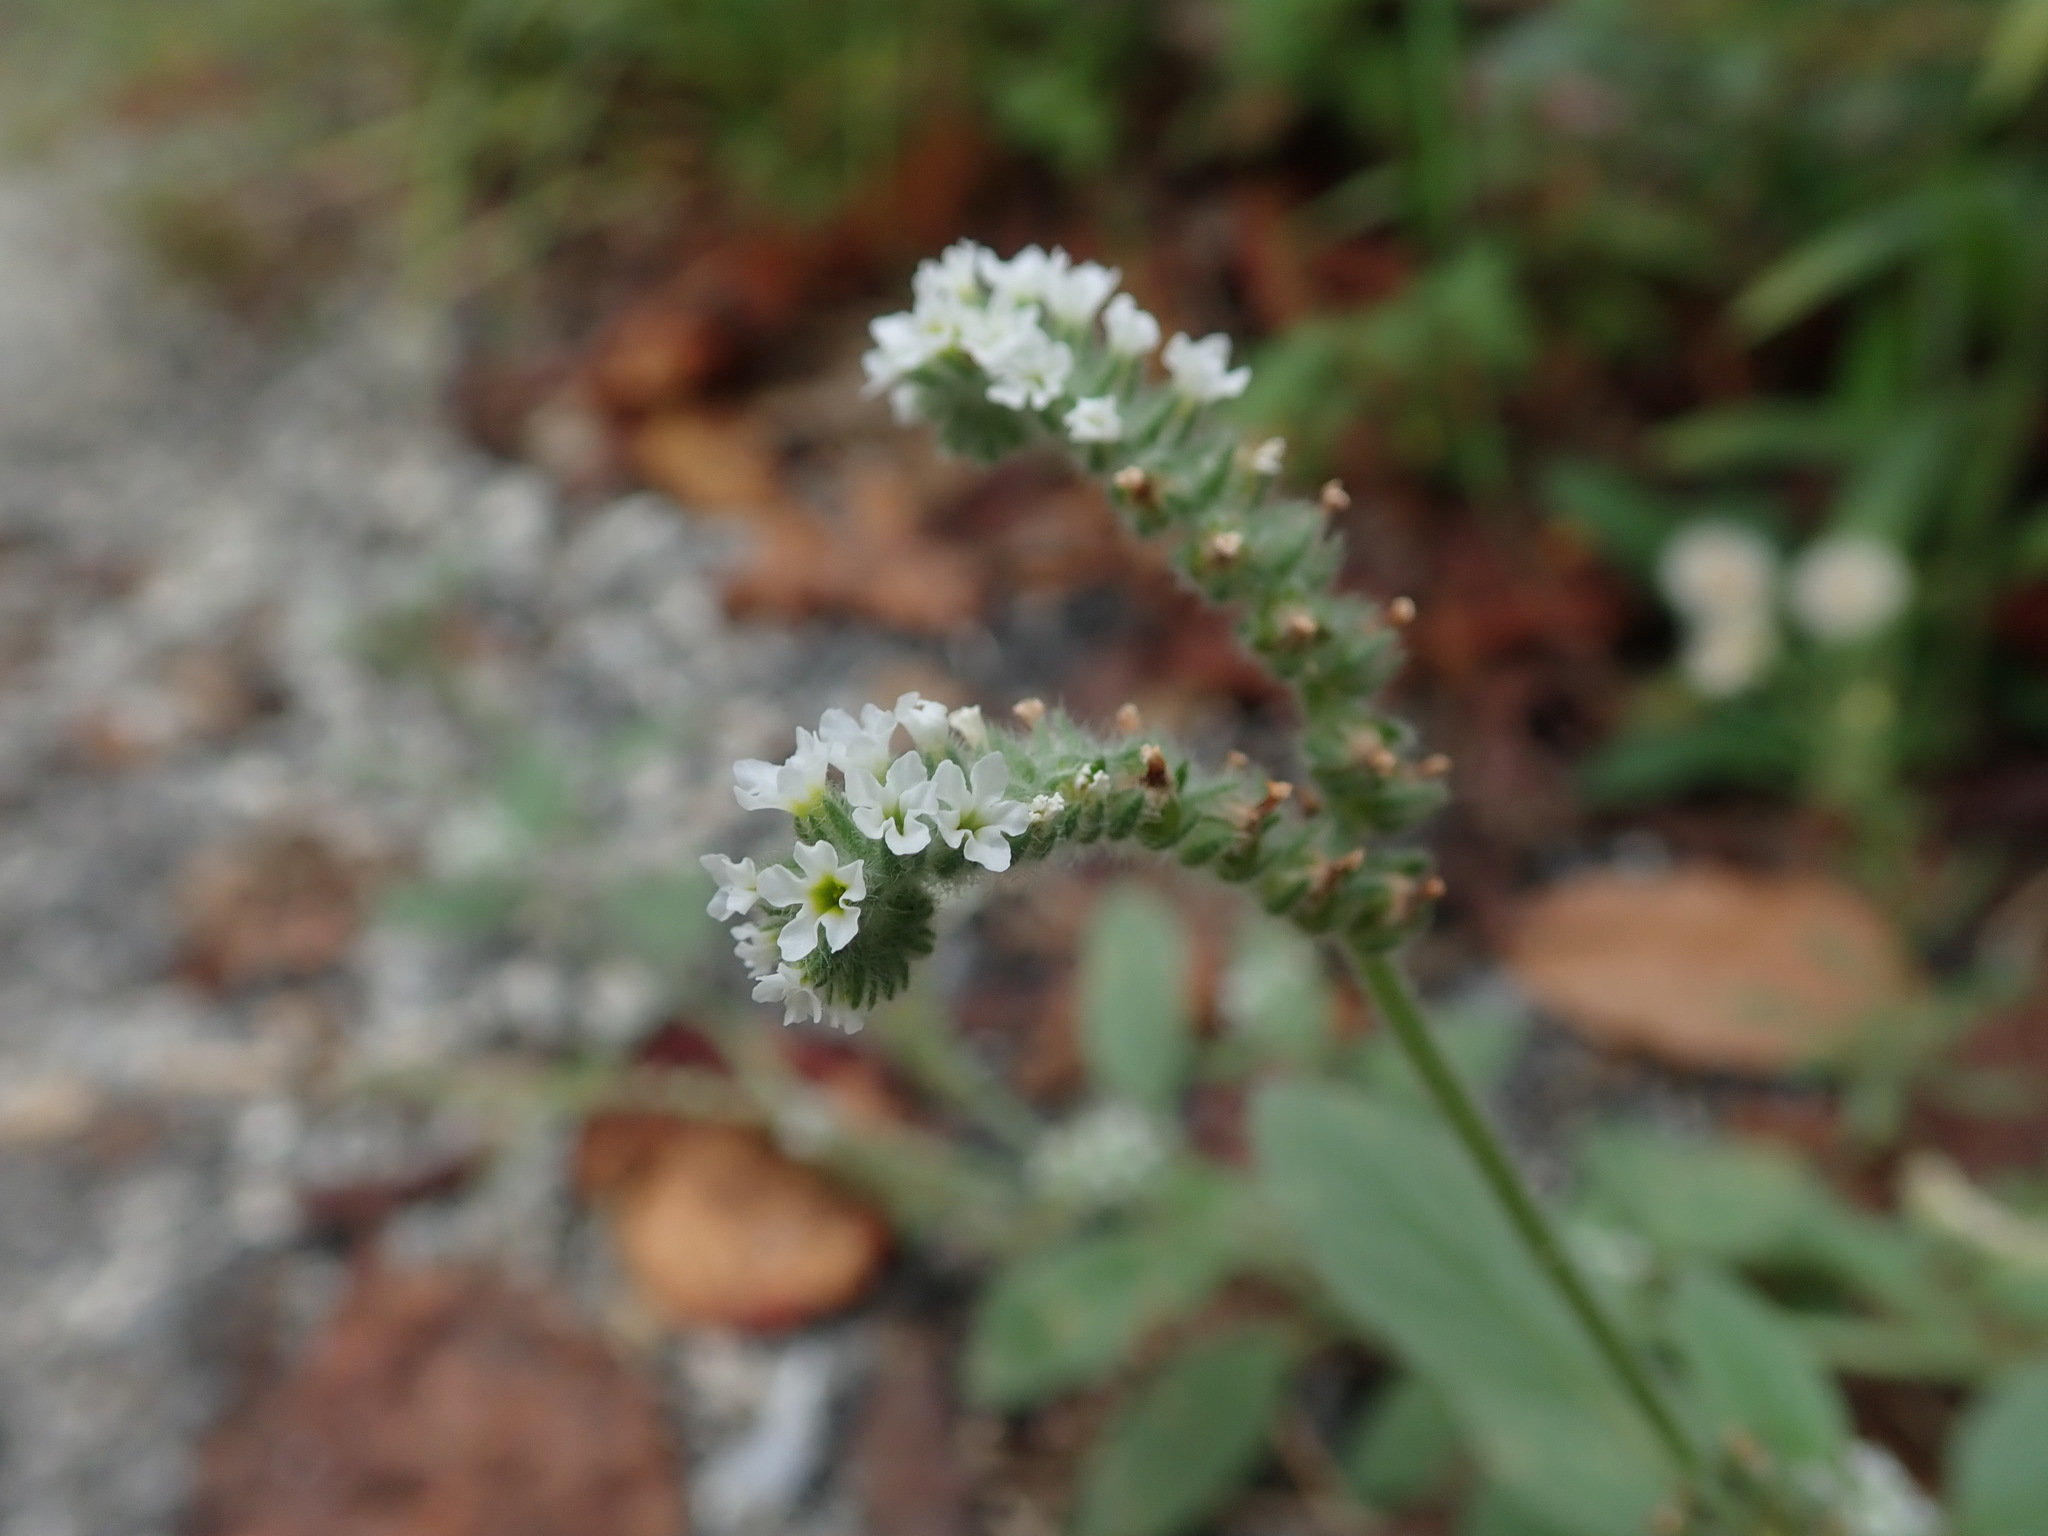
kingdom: Plantae
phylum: Tracheophyta
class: Magnoliopsida
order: Boraginales
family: Heliotropiaceae
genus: Heliotropium
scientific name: Heliotropium europaeum
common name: European heliotrope
